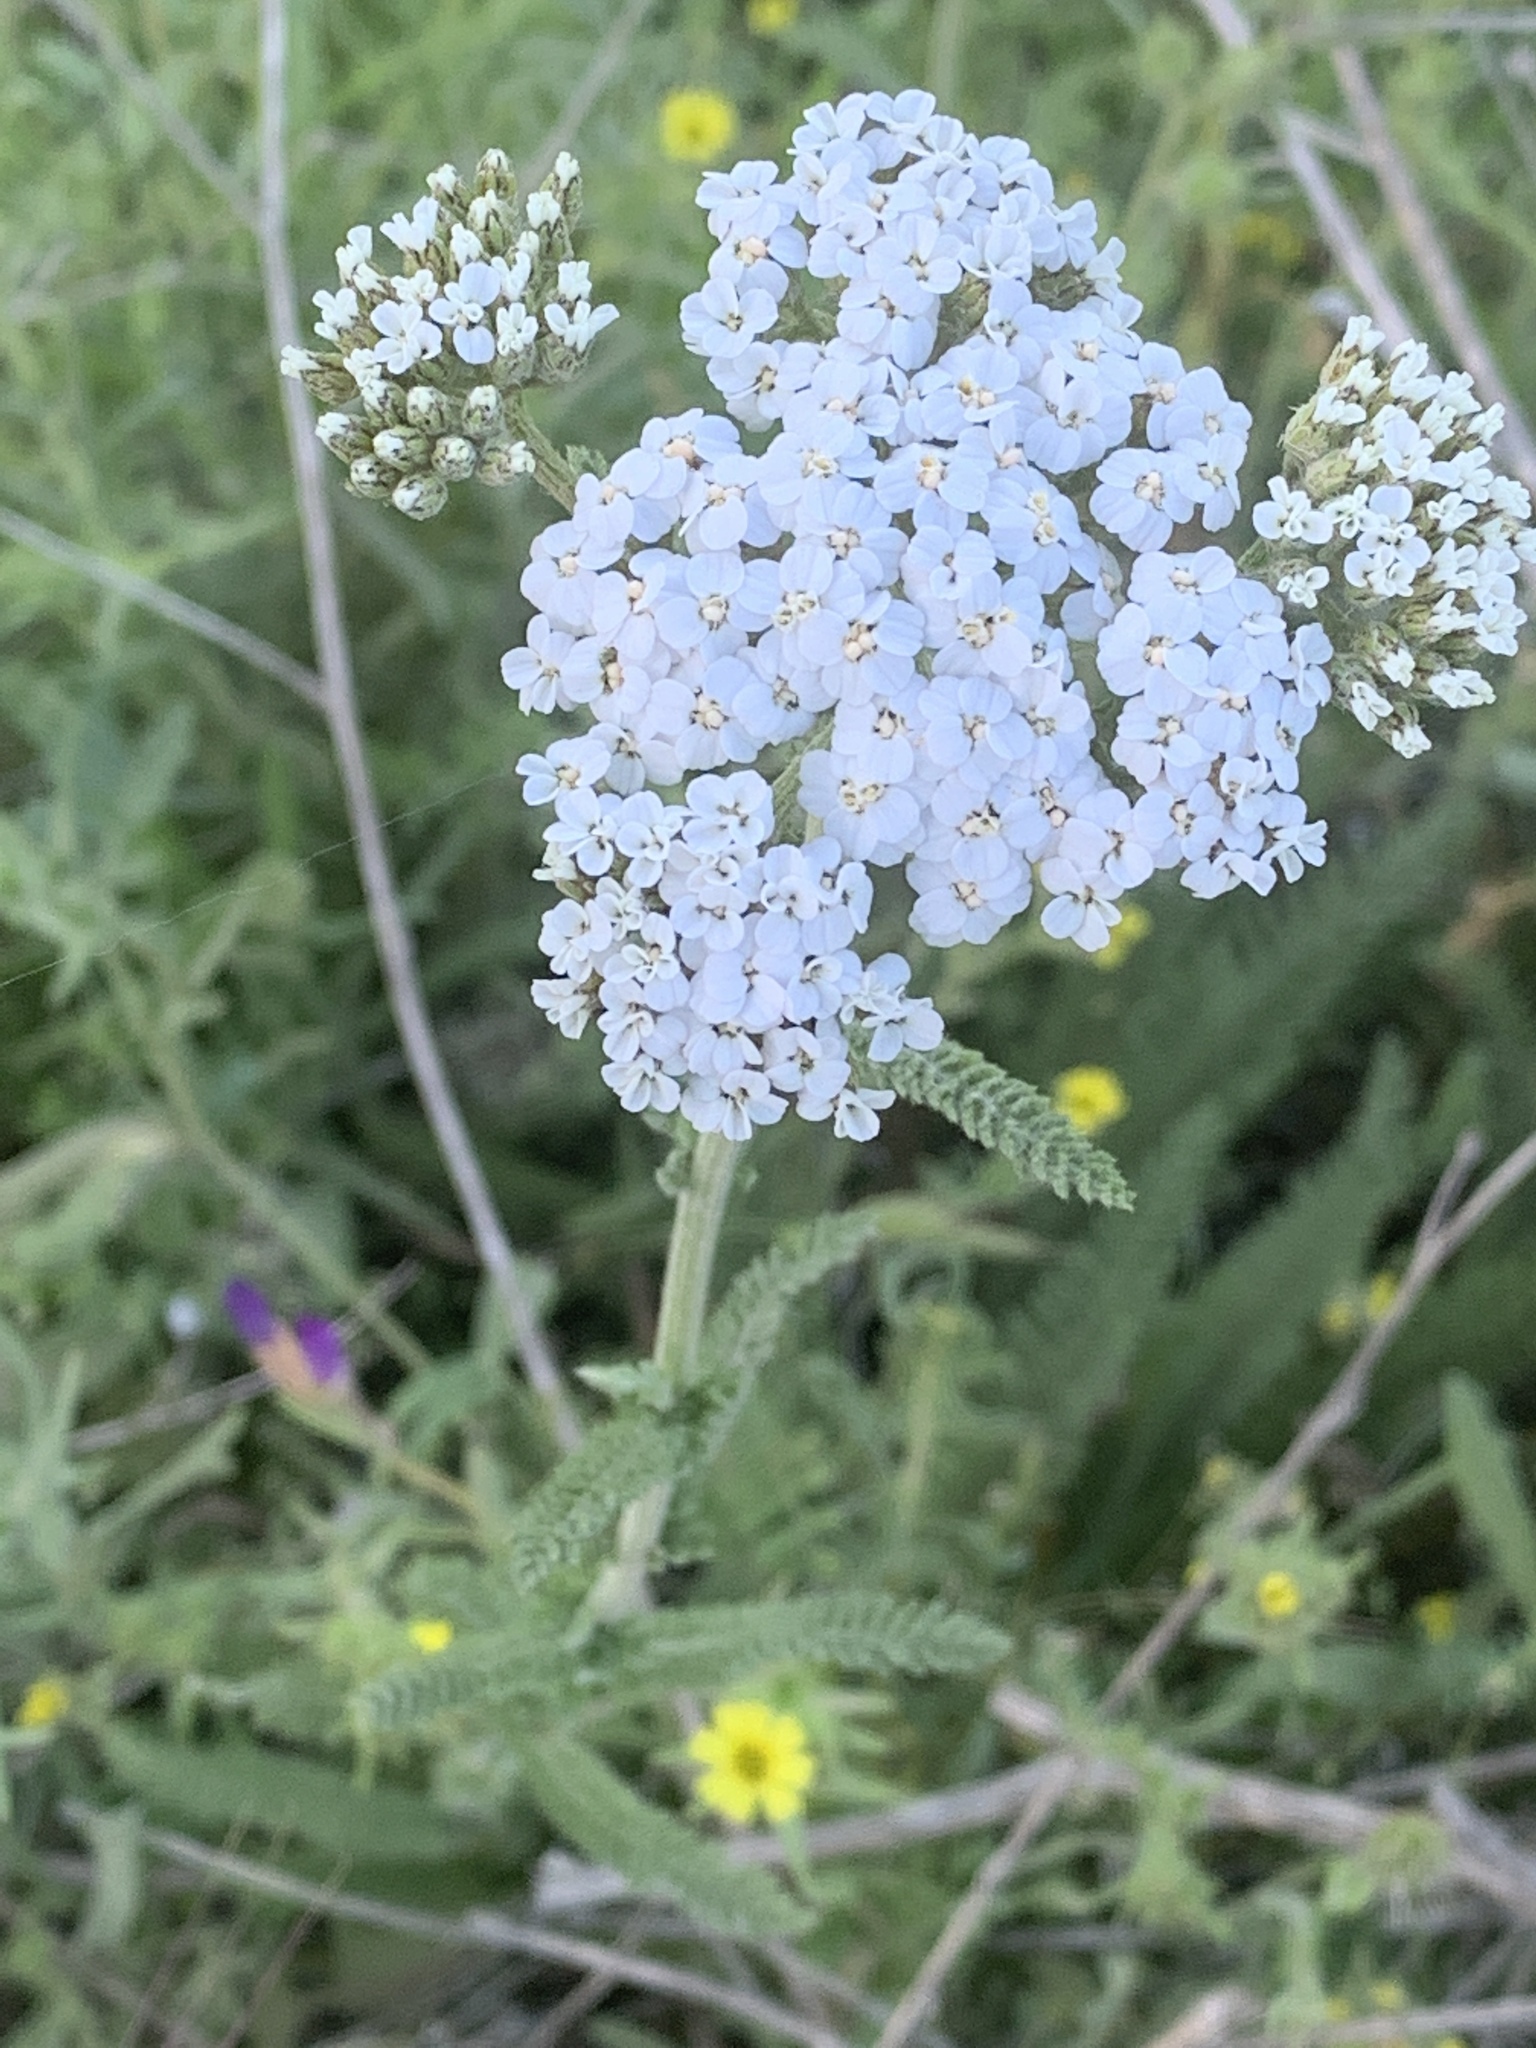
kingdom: Plantae
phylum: Tracheophyta
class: Magnoliopsida
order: Asterales
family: Asteraceae
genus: Achillea
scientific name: Achillea millefolium
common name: Yarrow
